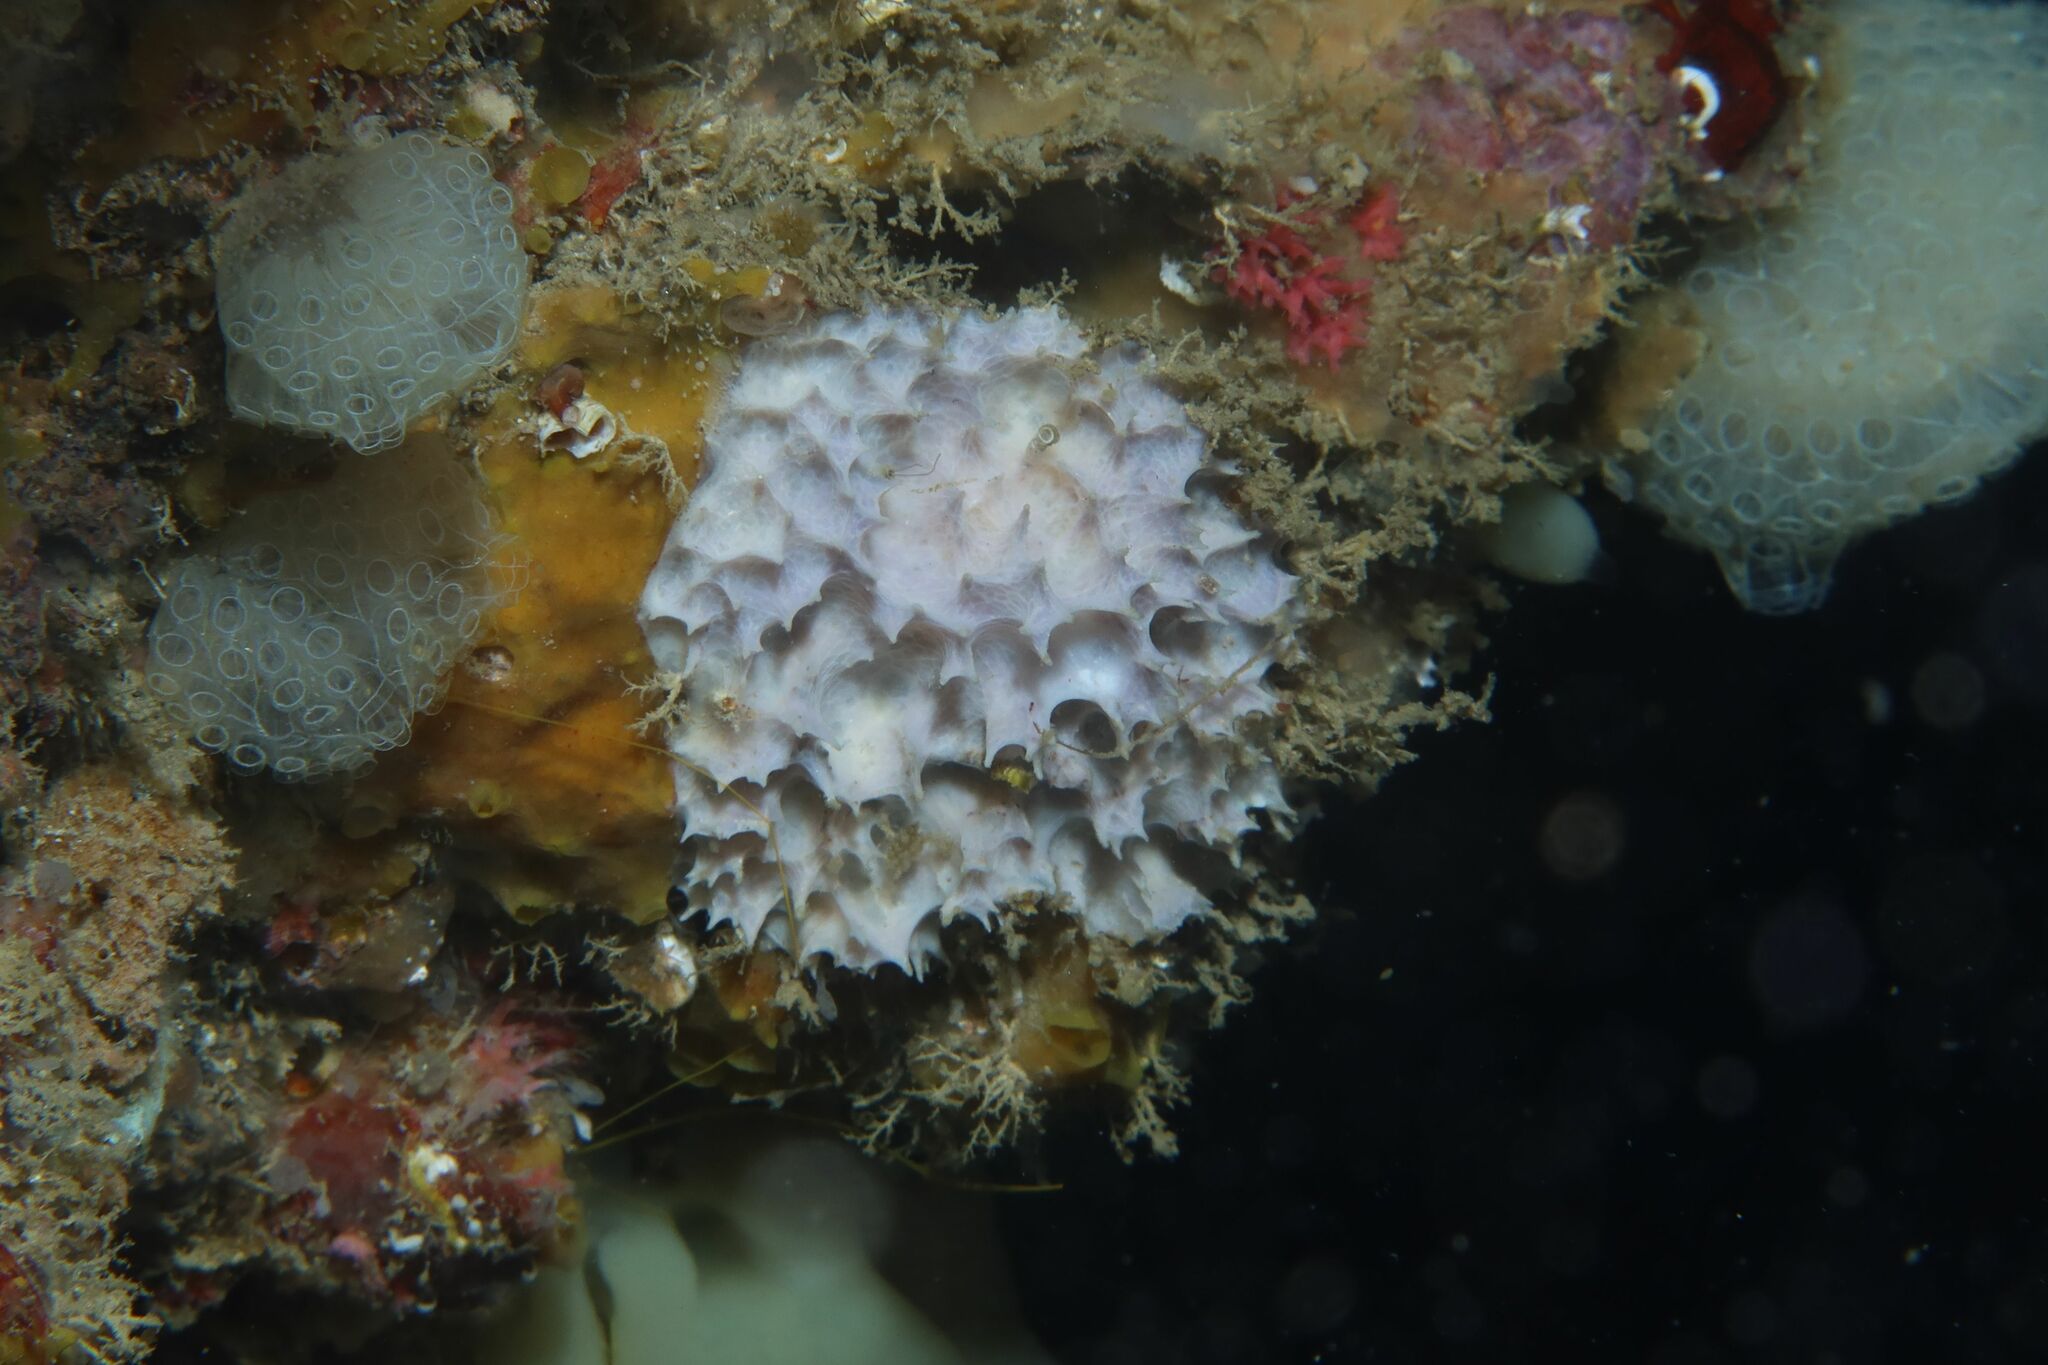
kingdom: Animalia
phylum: Porifera
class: Demospongiae
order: Dictyoceratida
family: Dysideidae
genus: Dysidea
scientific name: Dysidea avara
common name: Pink sponge
